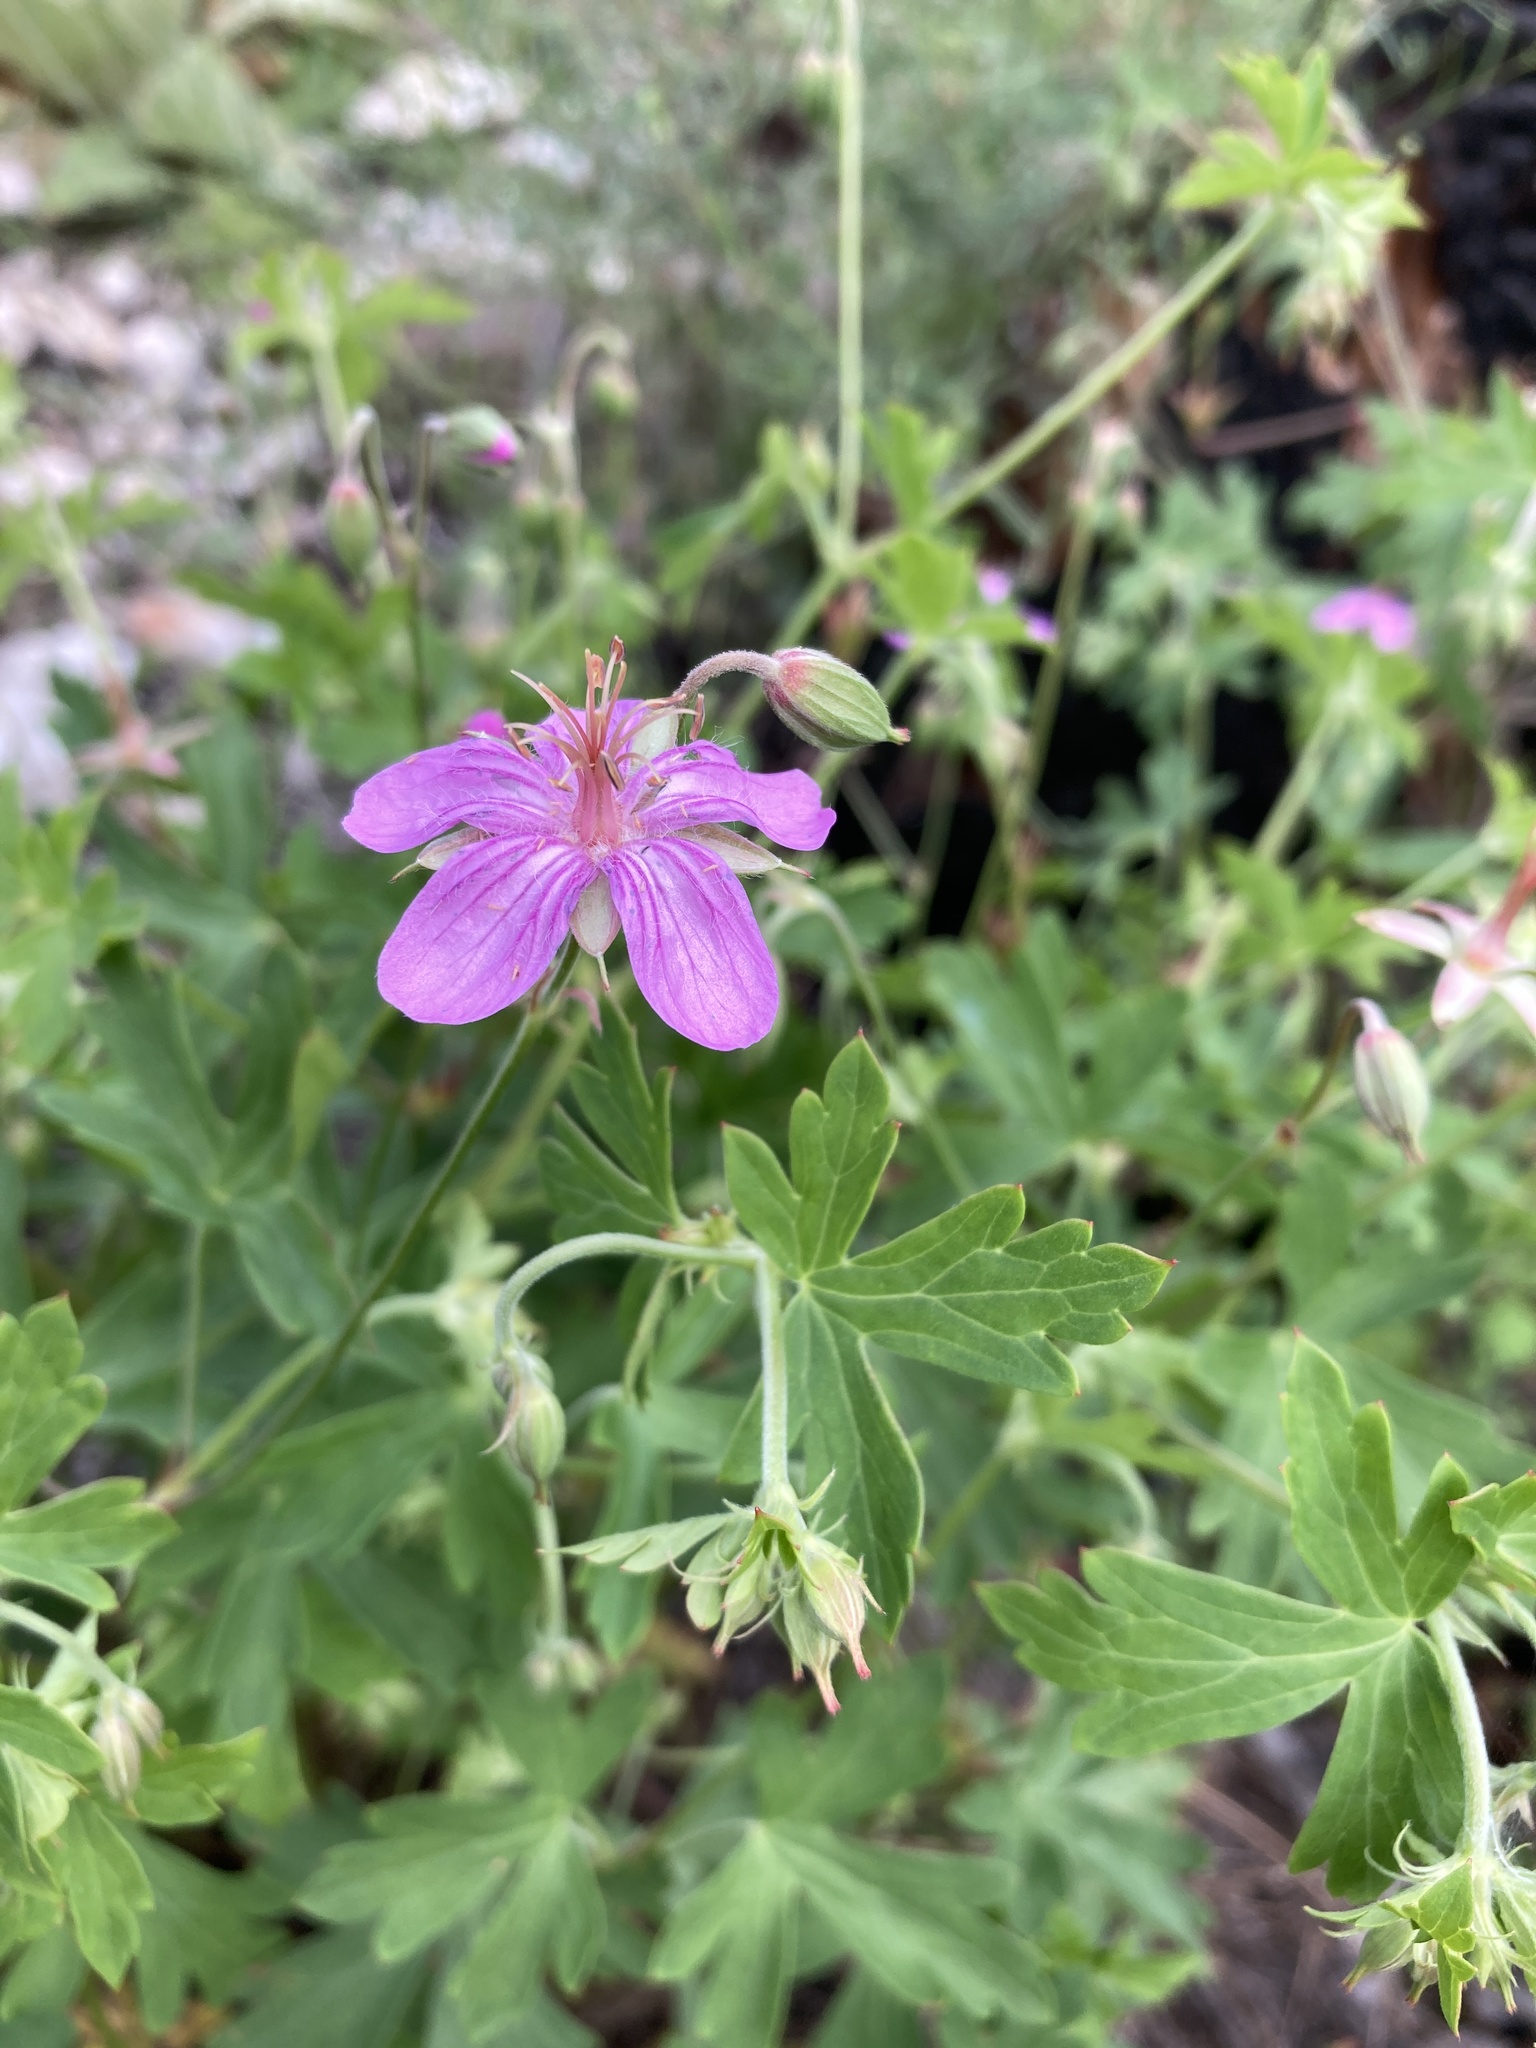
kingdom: Plantae
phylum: Tracheophyta
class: Magnoliopsida
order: Geraniales
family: Geraniaceae
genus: Geranium
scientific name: Geranium caespitosum
